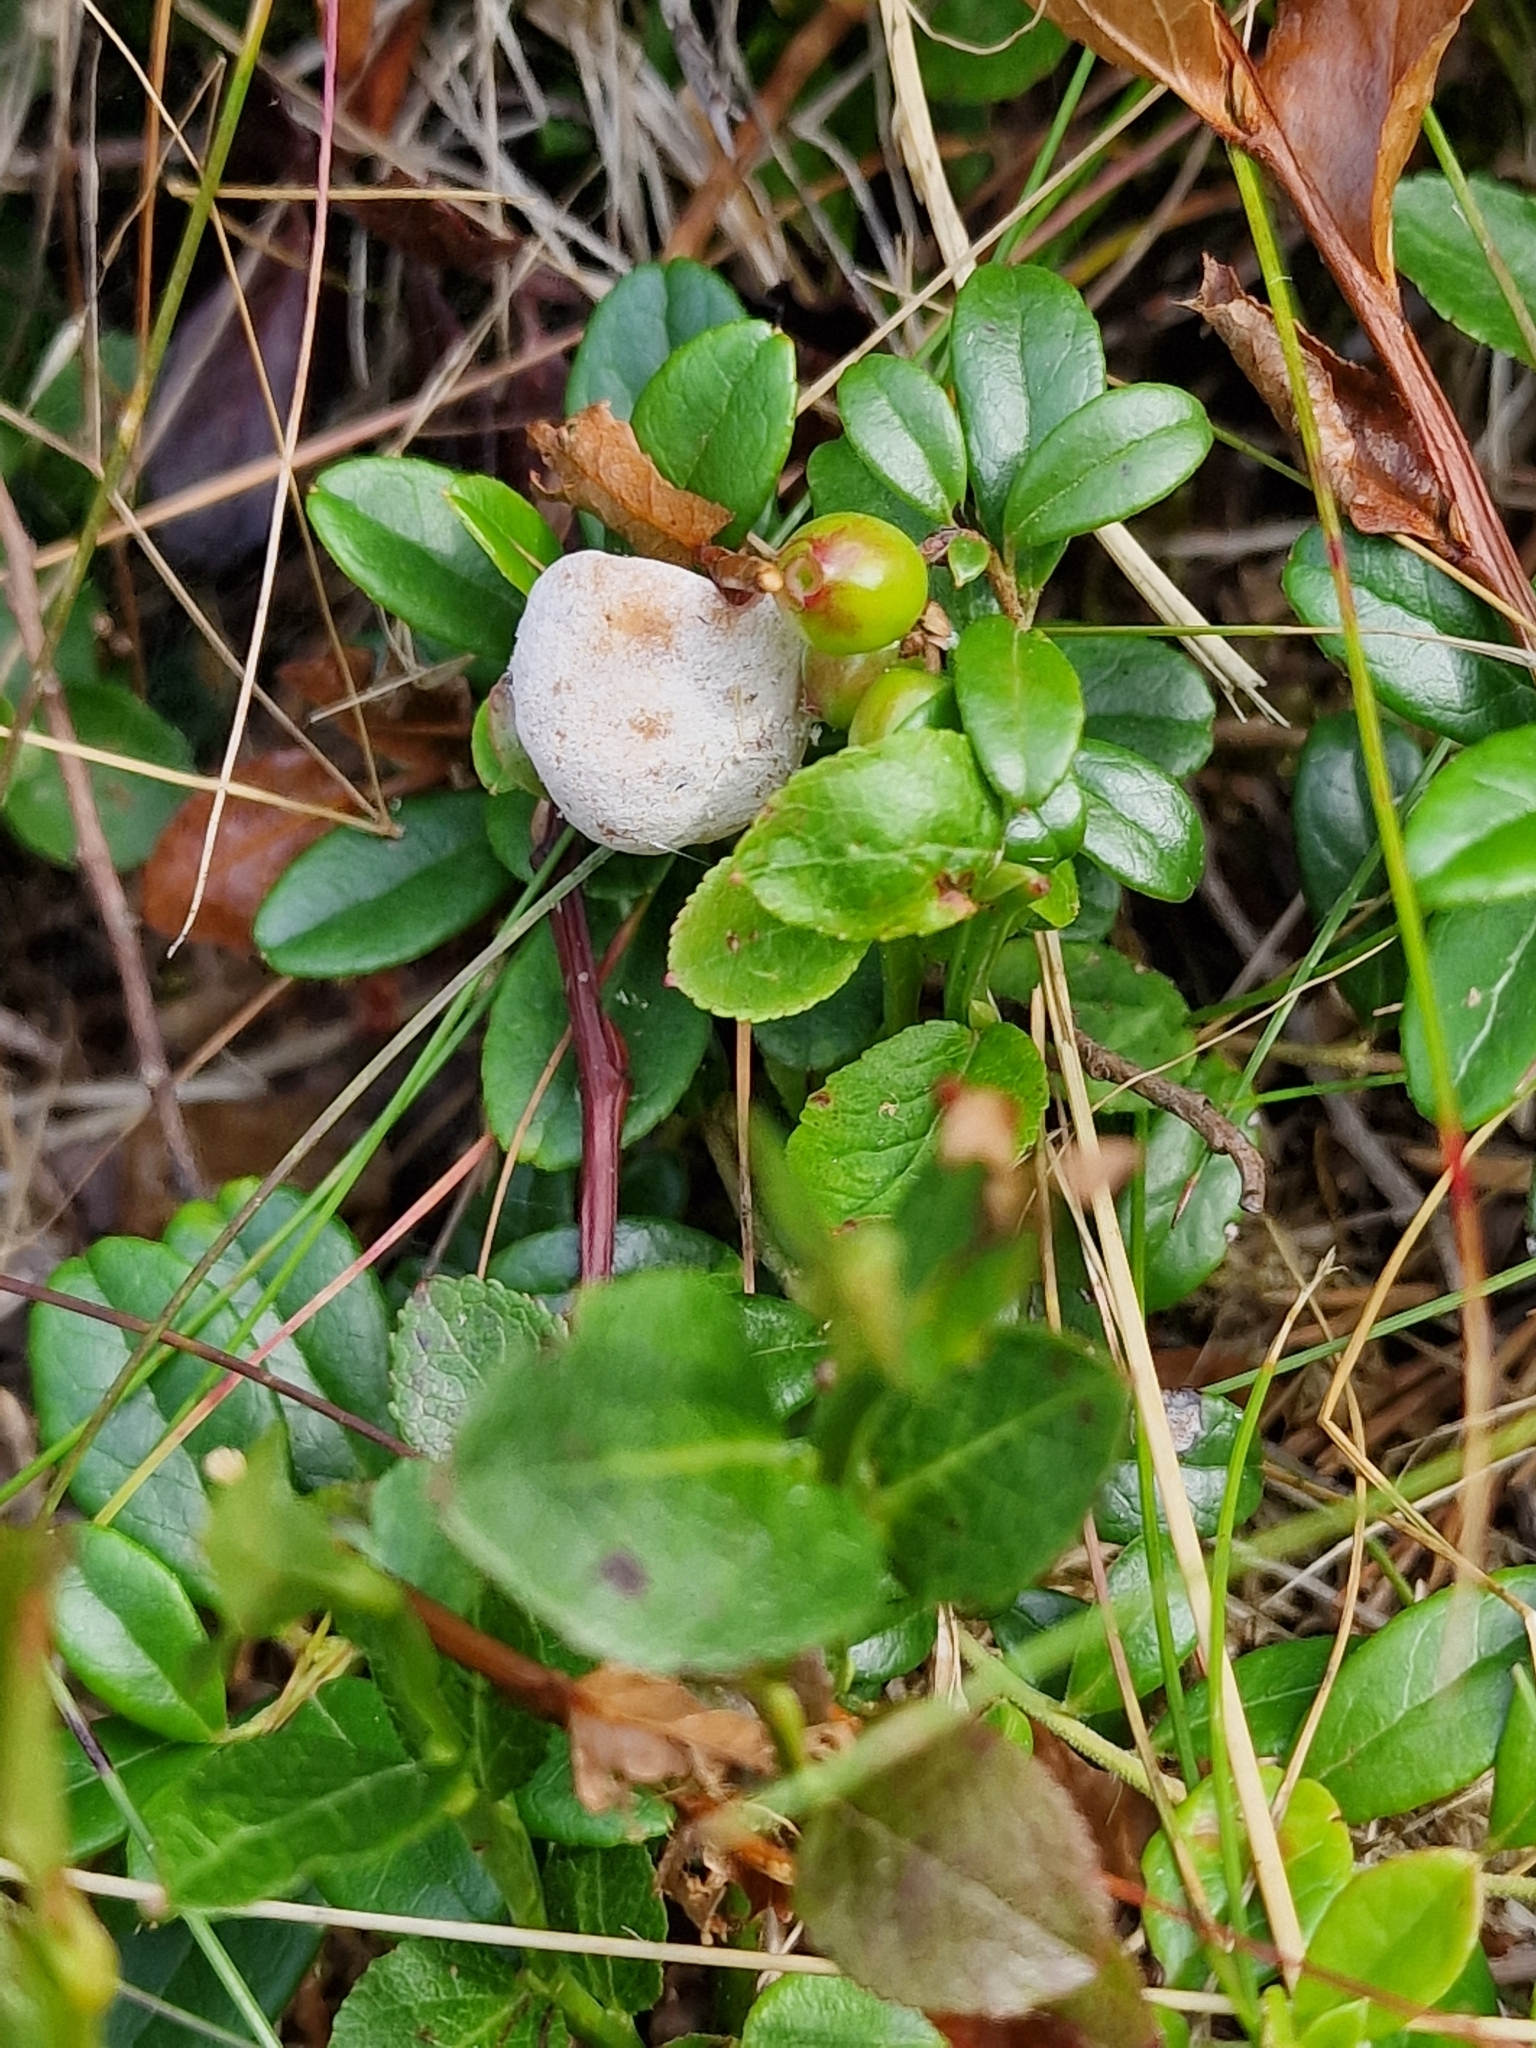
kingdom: Fungi
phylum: Basidiomycota
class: Exobasidiomycetes
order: Exobasidiales
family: Exobasidiaceae
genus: Exobasidium
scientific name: Exobasidium vaccinii
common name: Cowberry redleaf
